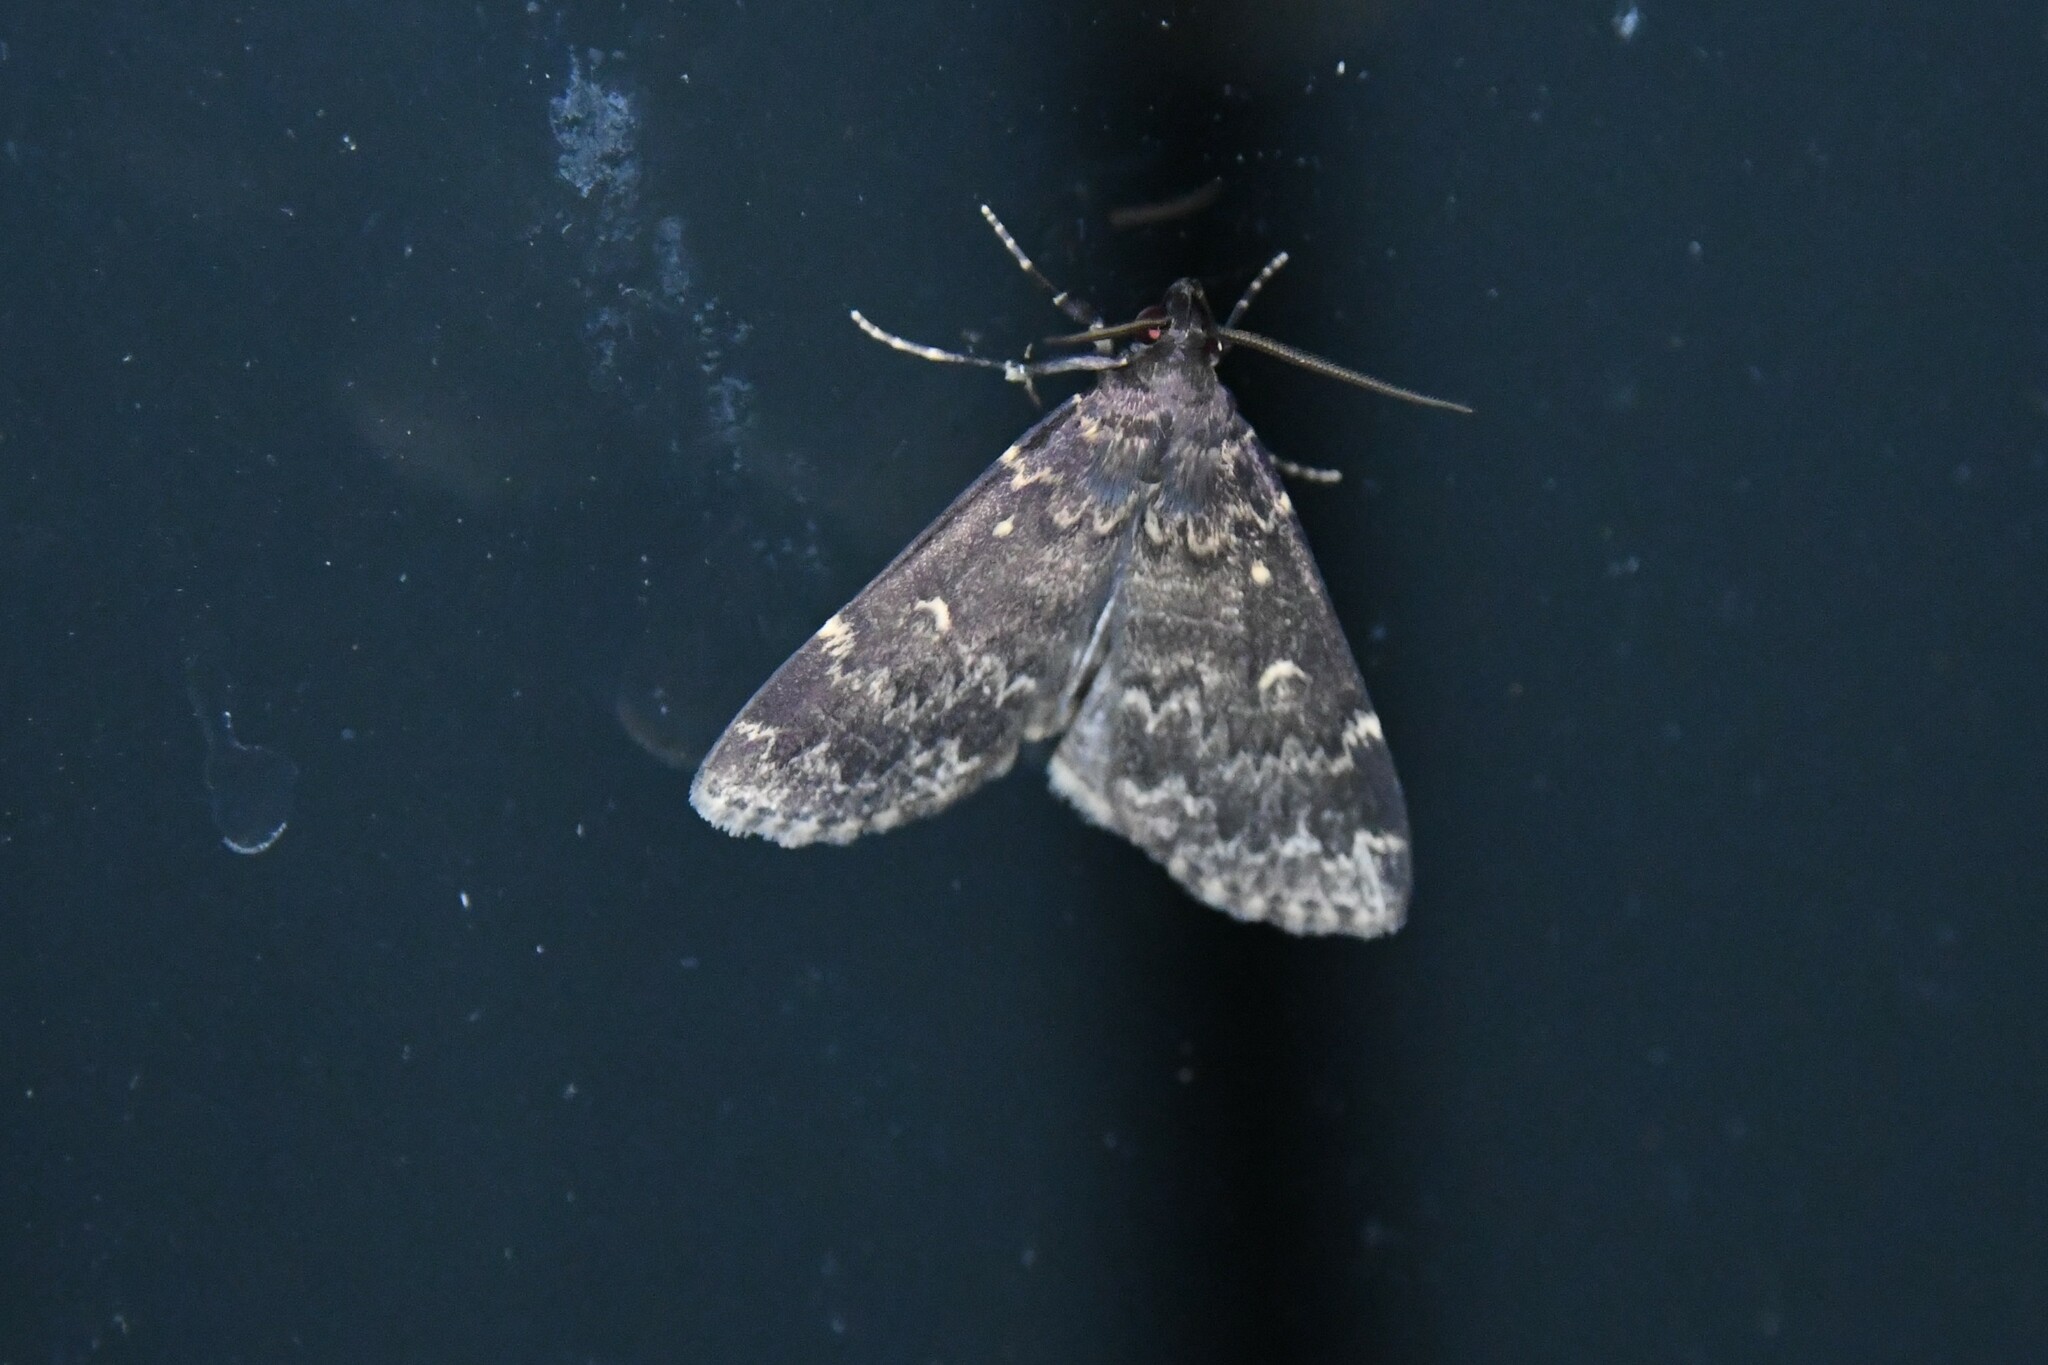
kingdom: Animalia
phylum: Arthropoda
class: Insecta
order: Lepidoptera
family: Erebidae
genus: Idia
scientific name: Idia lubricalis
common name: Twin-striped tabby
